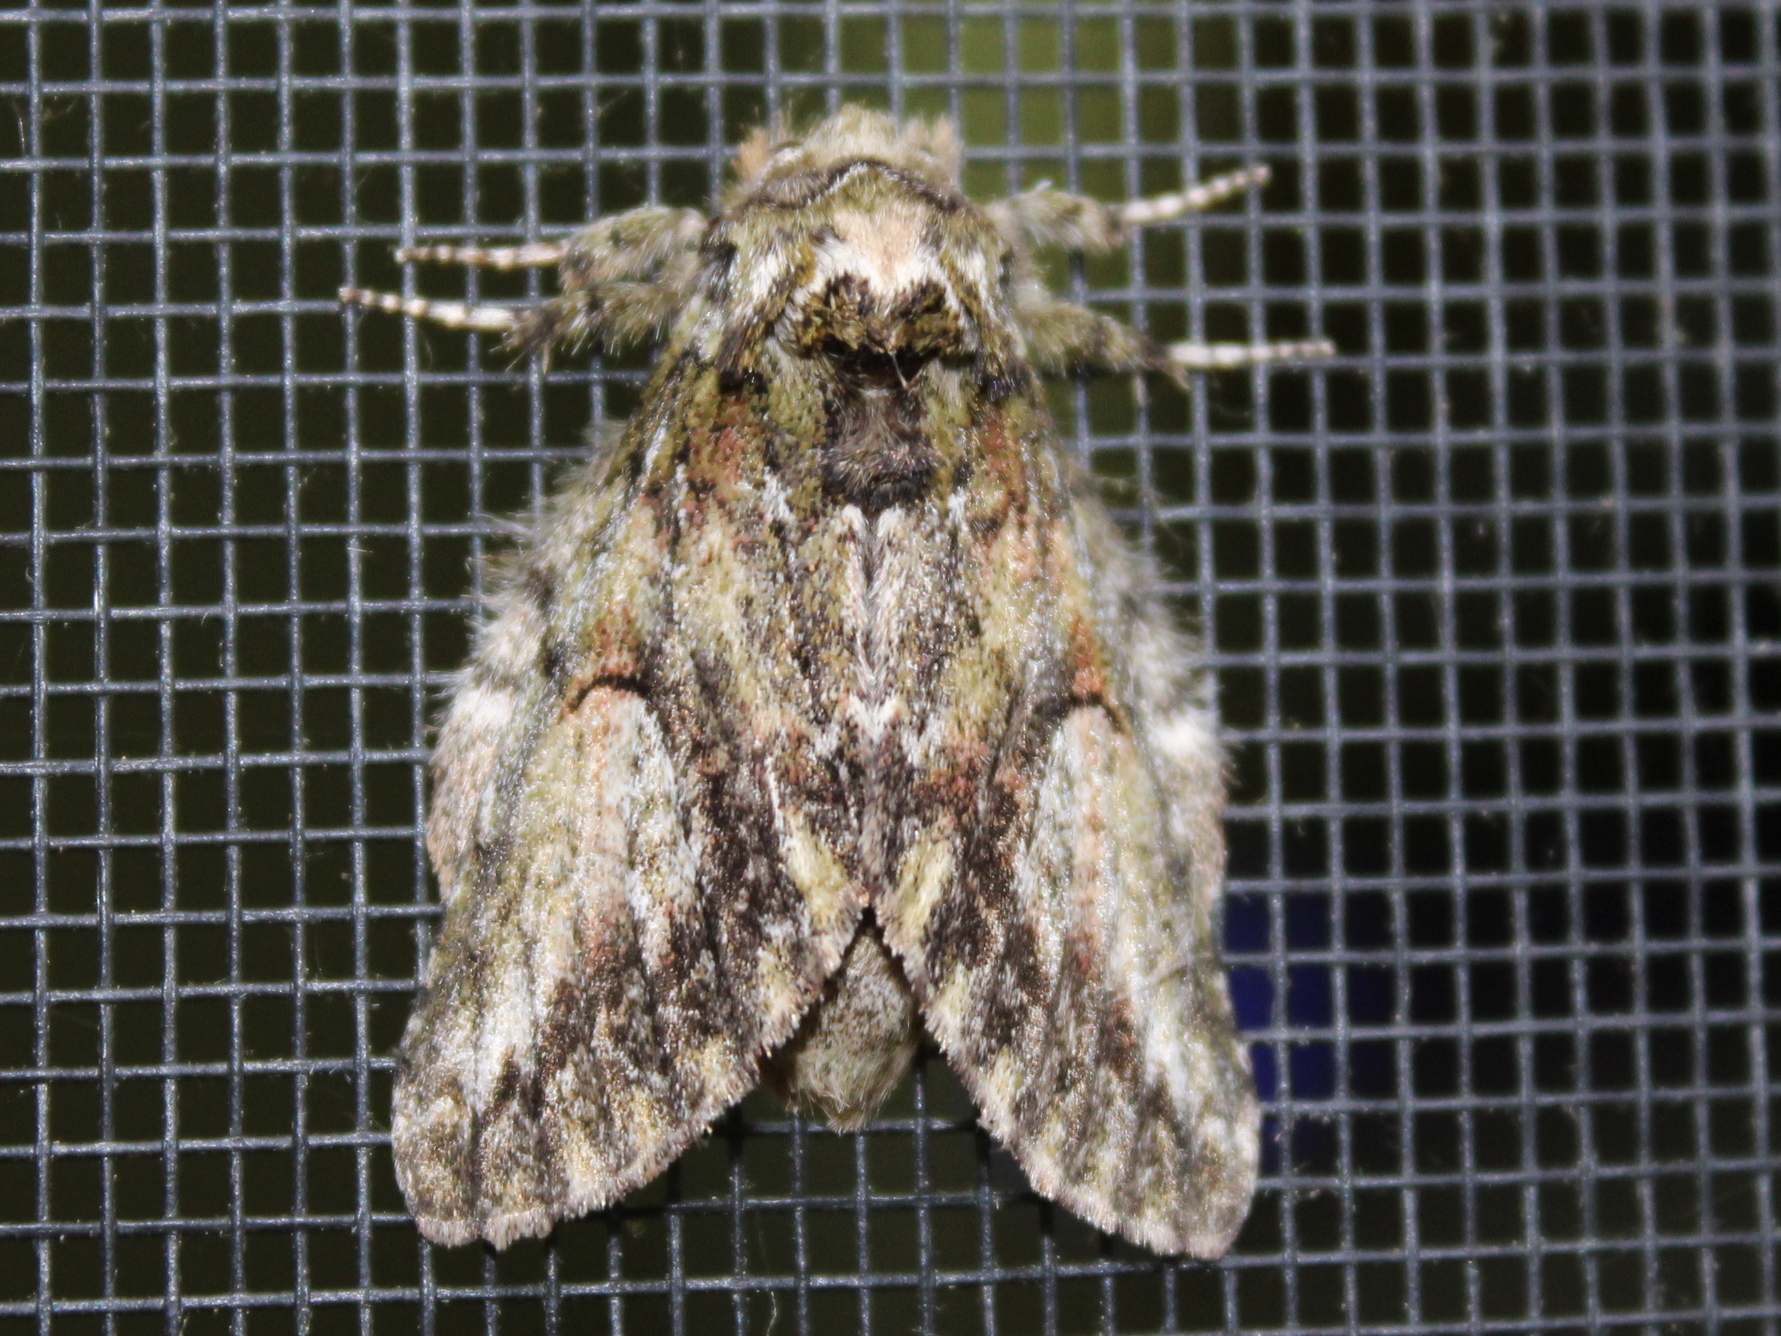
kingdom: Animalia
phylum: Arthropoda
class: Insecta
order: Lepidoptera
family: Notodontidae
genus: Heterocampa
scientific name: Heterocampa
